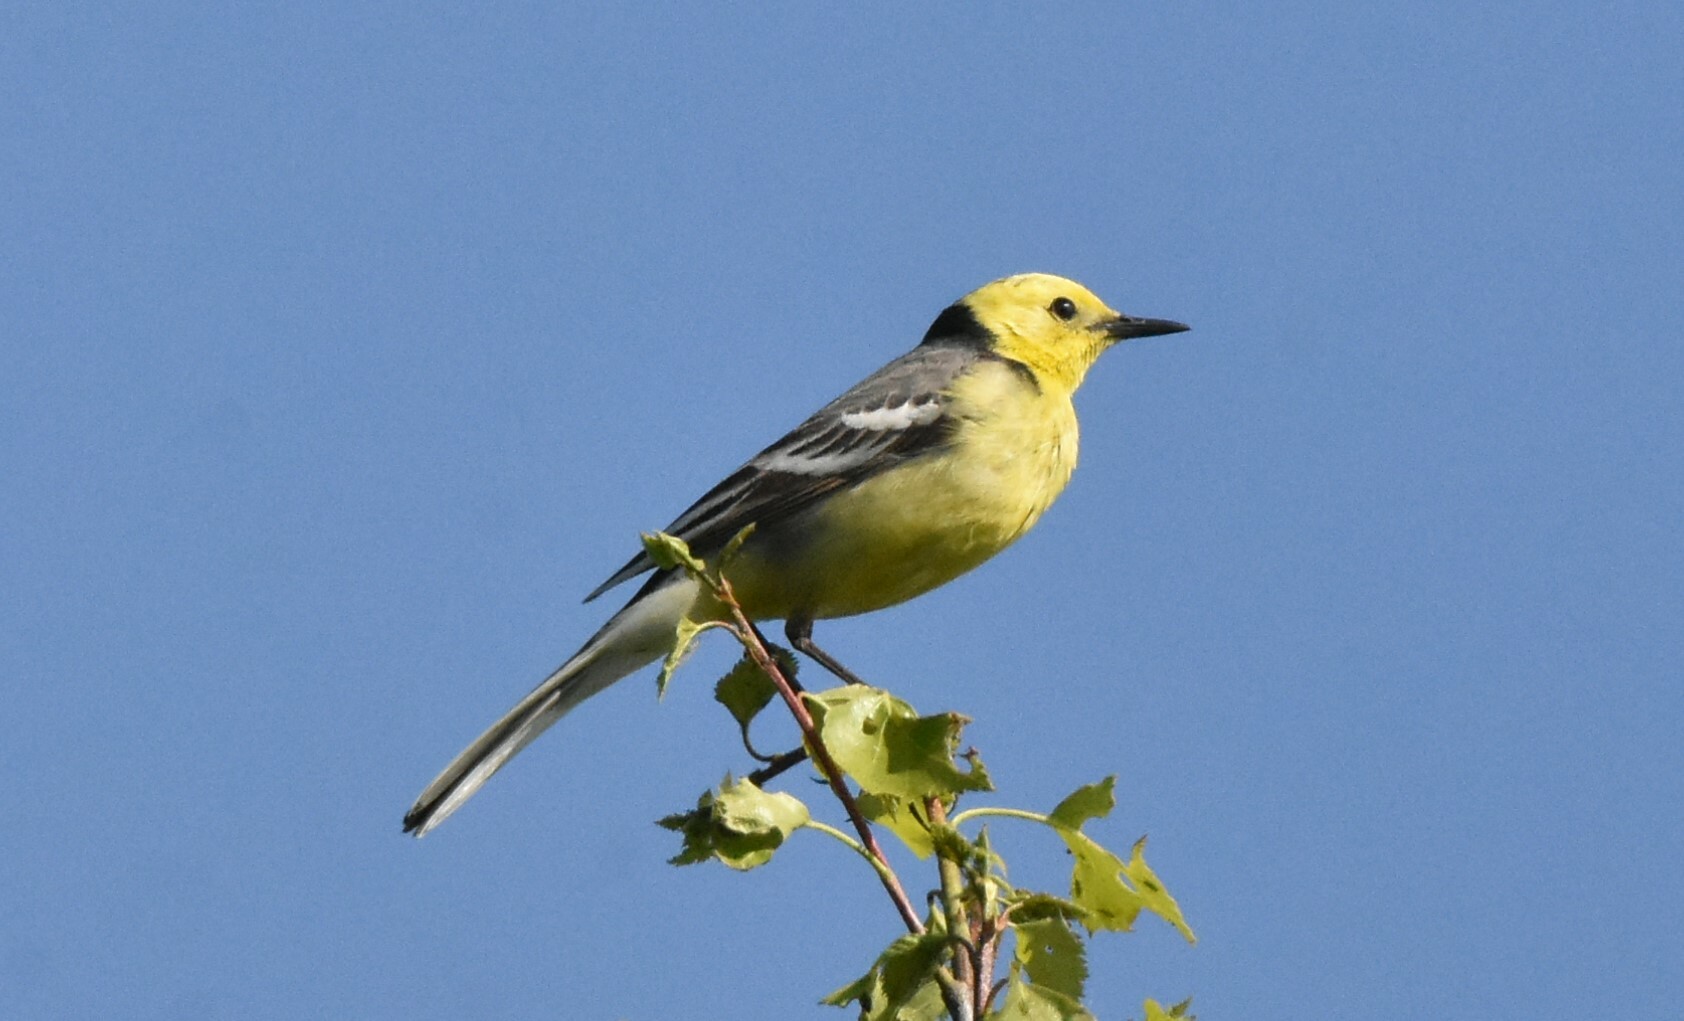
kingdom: Animalia
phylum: Chordata
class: Aves
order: Passeriformes
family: Motacillidae
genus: Motacilla
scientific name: Motacilla citreola
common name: Citrine wagtail
